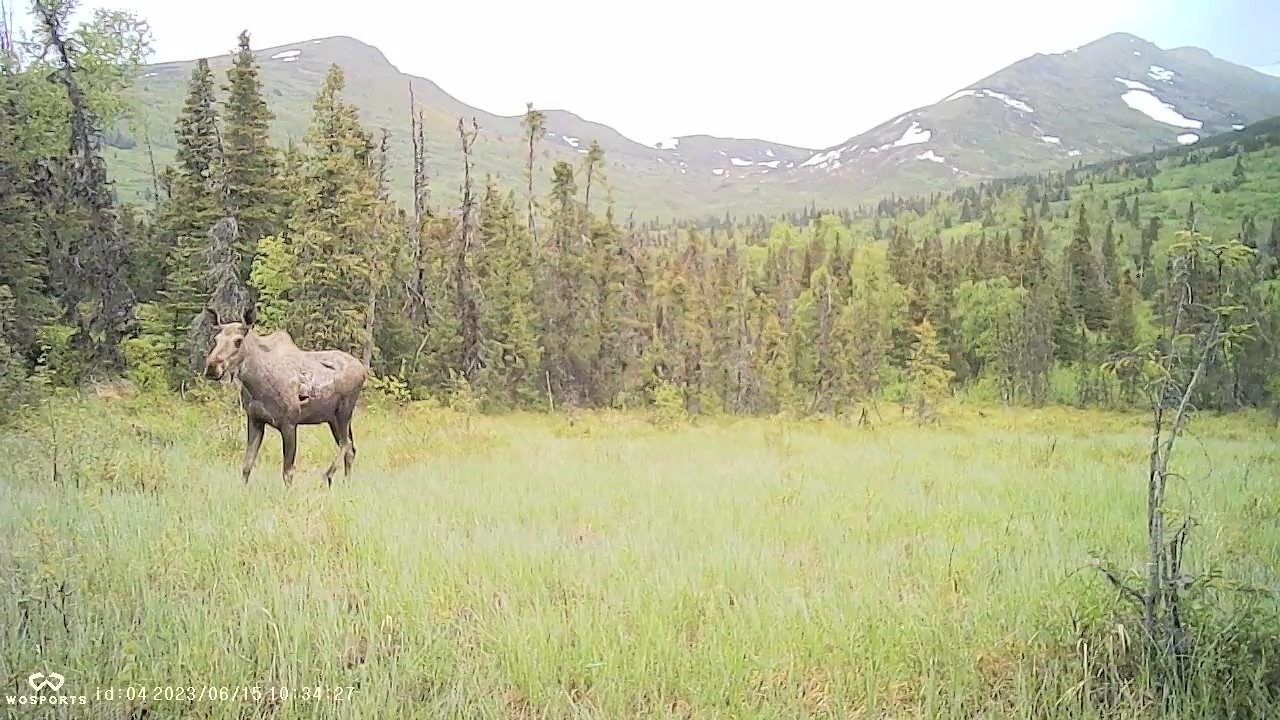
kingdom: Animalia
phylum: Chordata
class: Mammalia
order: Artiodactyla
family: Cervidae
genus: Alces
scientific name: Alces alces
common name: Moose
